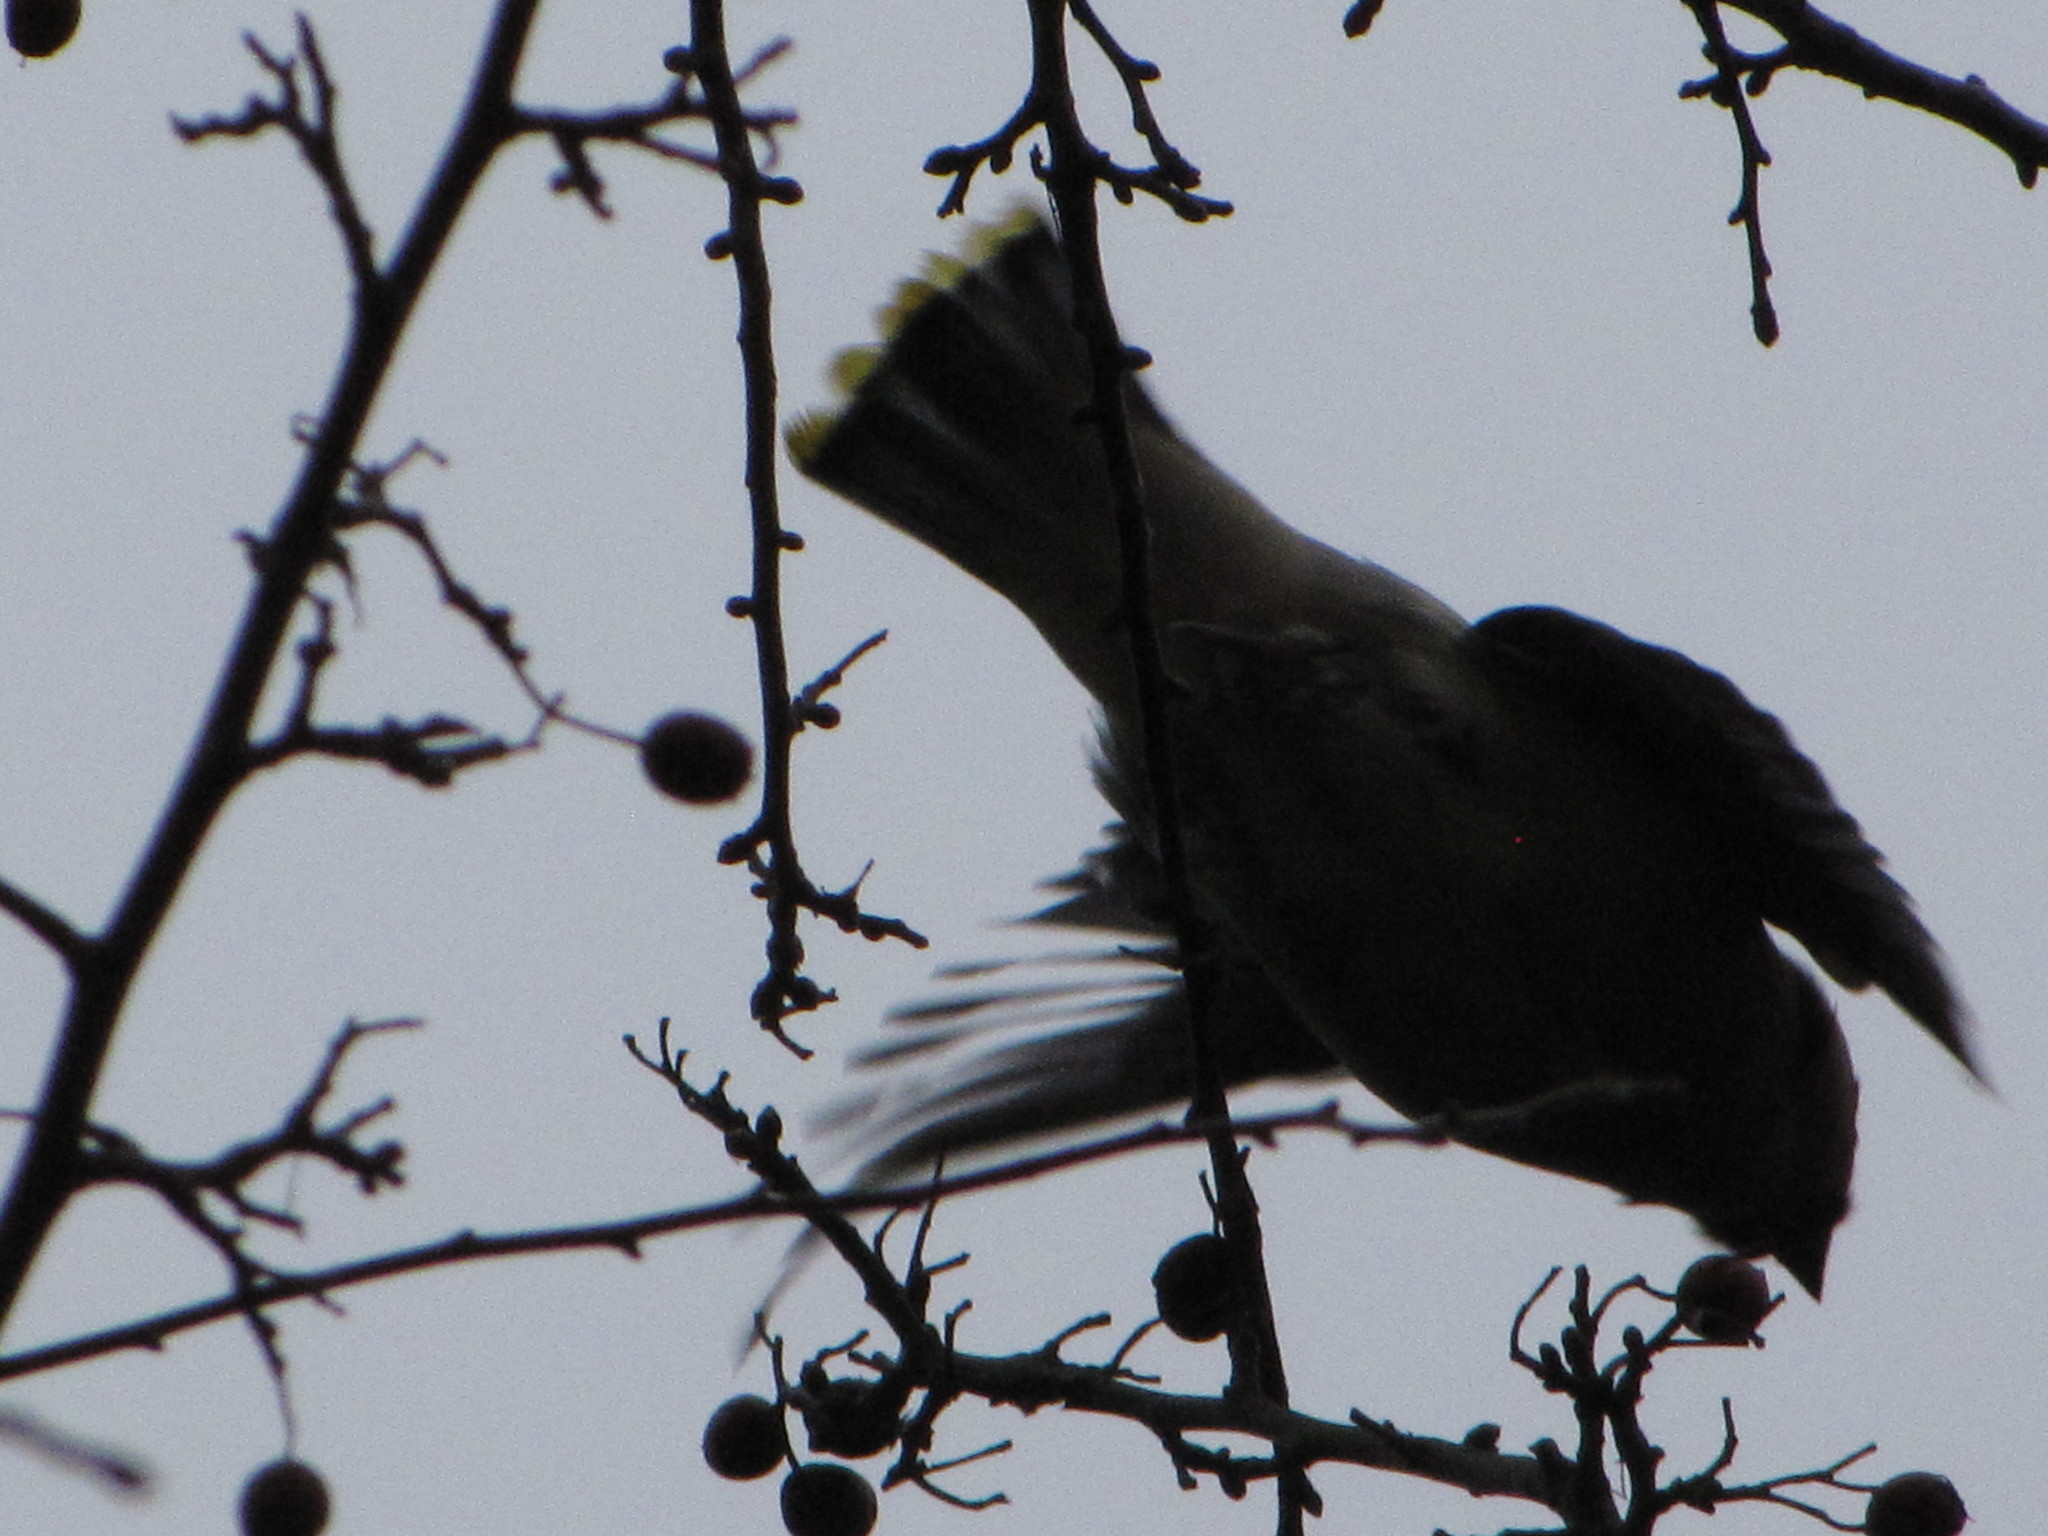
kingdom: Animalia
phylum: Chordata
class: Aves
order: Passeriformes
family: Bombycillidae
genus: Bombycilla
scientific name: Bombycilla cedrorum
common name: Cedar waxwing
